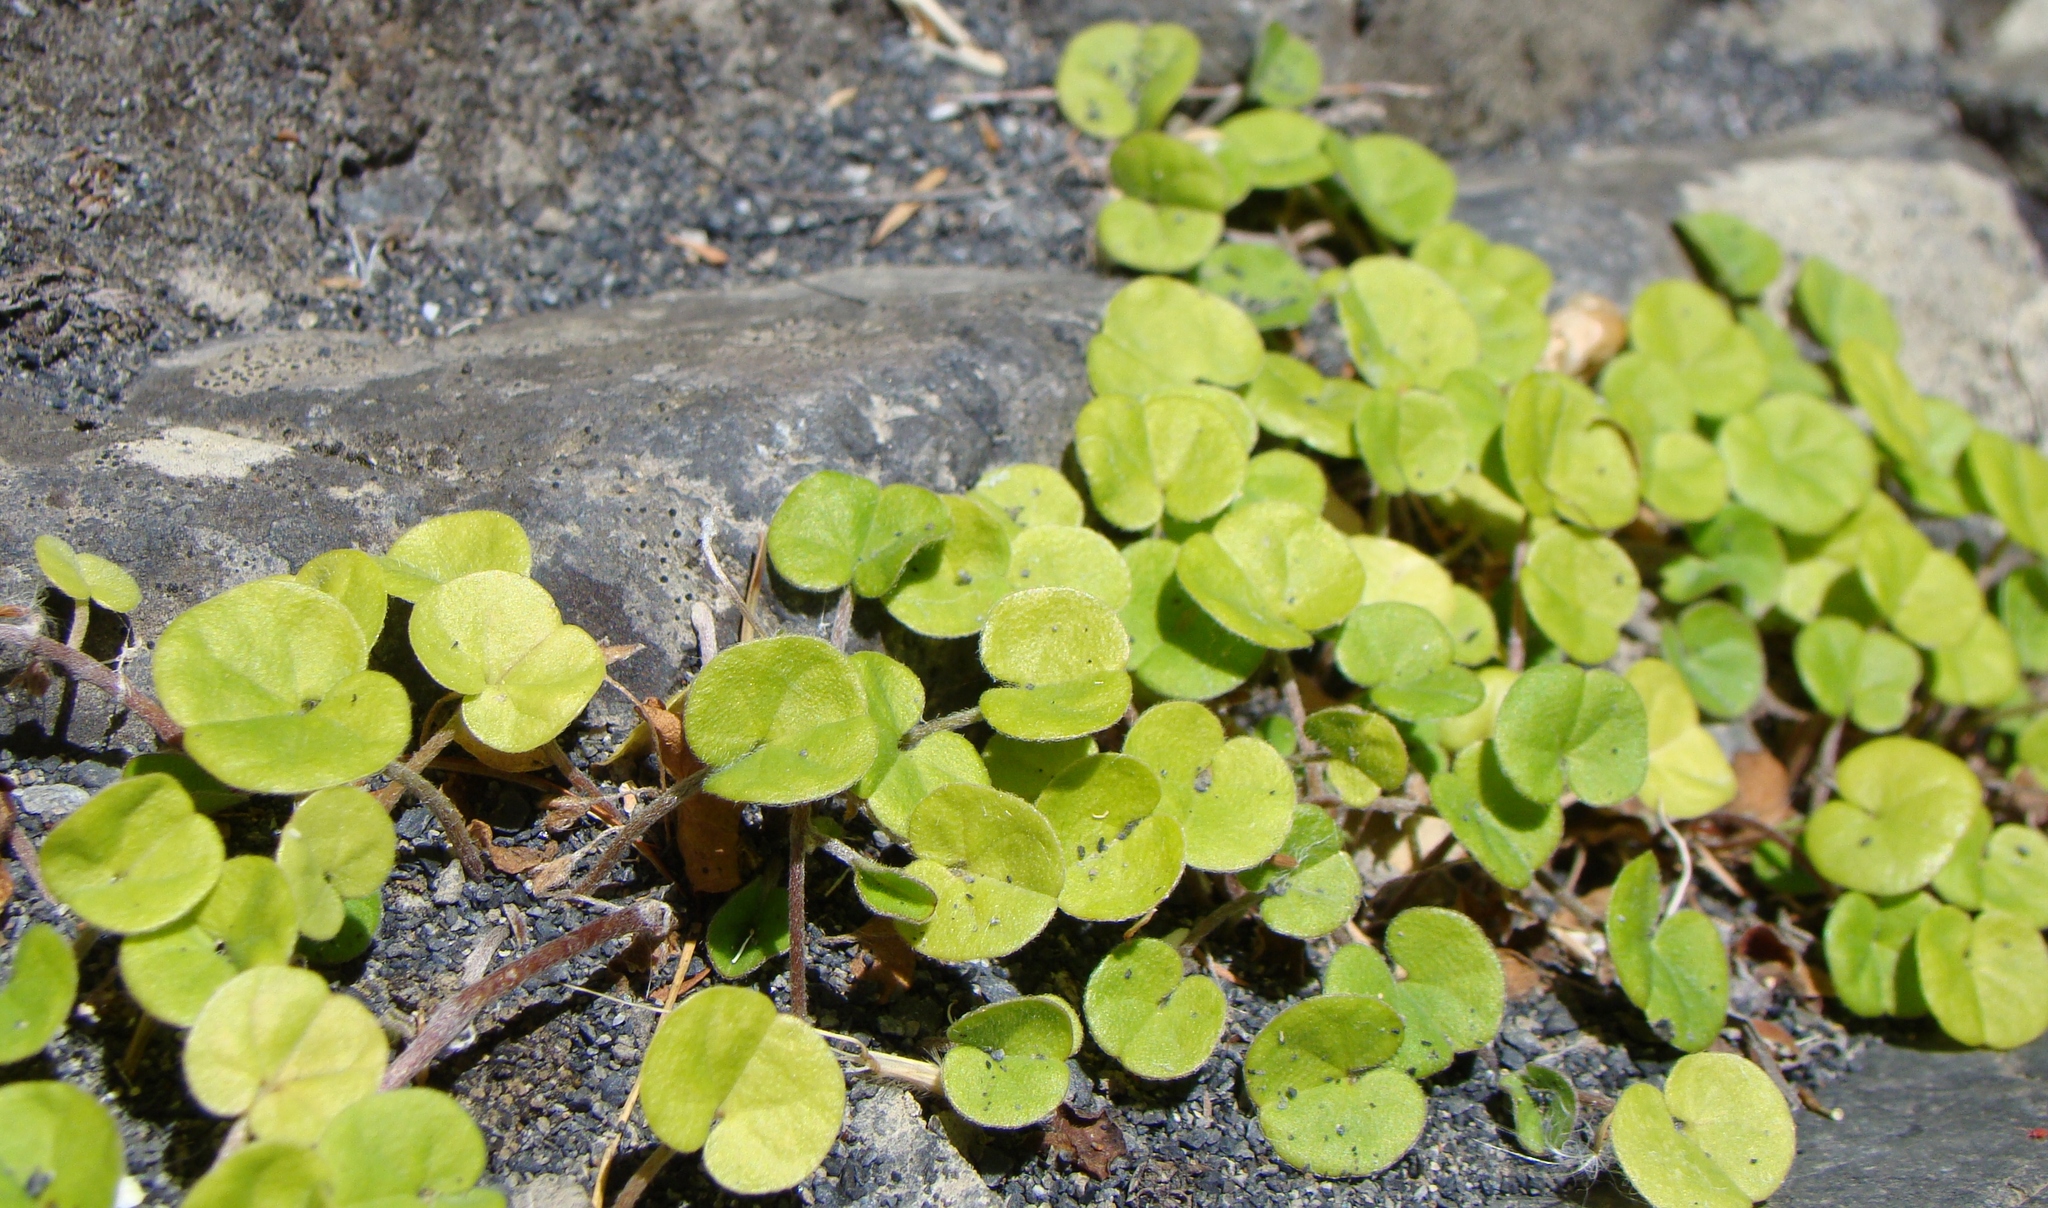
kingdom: Plantae
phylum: Tracheophyta
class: Magnoliopsida
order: Solanales
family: Convolvulaceae
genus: Dichondra
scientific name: Dichondra brevifolia
